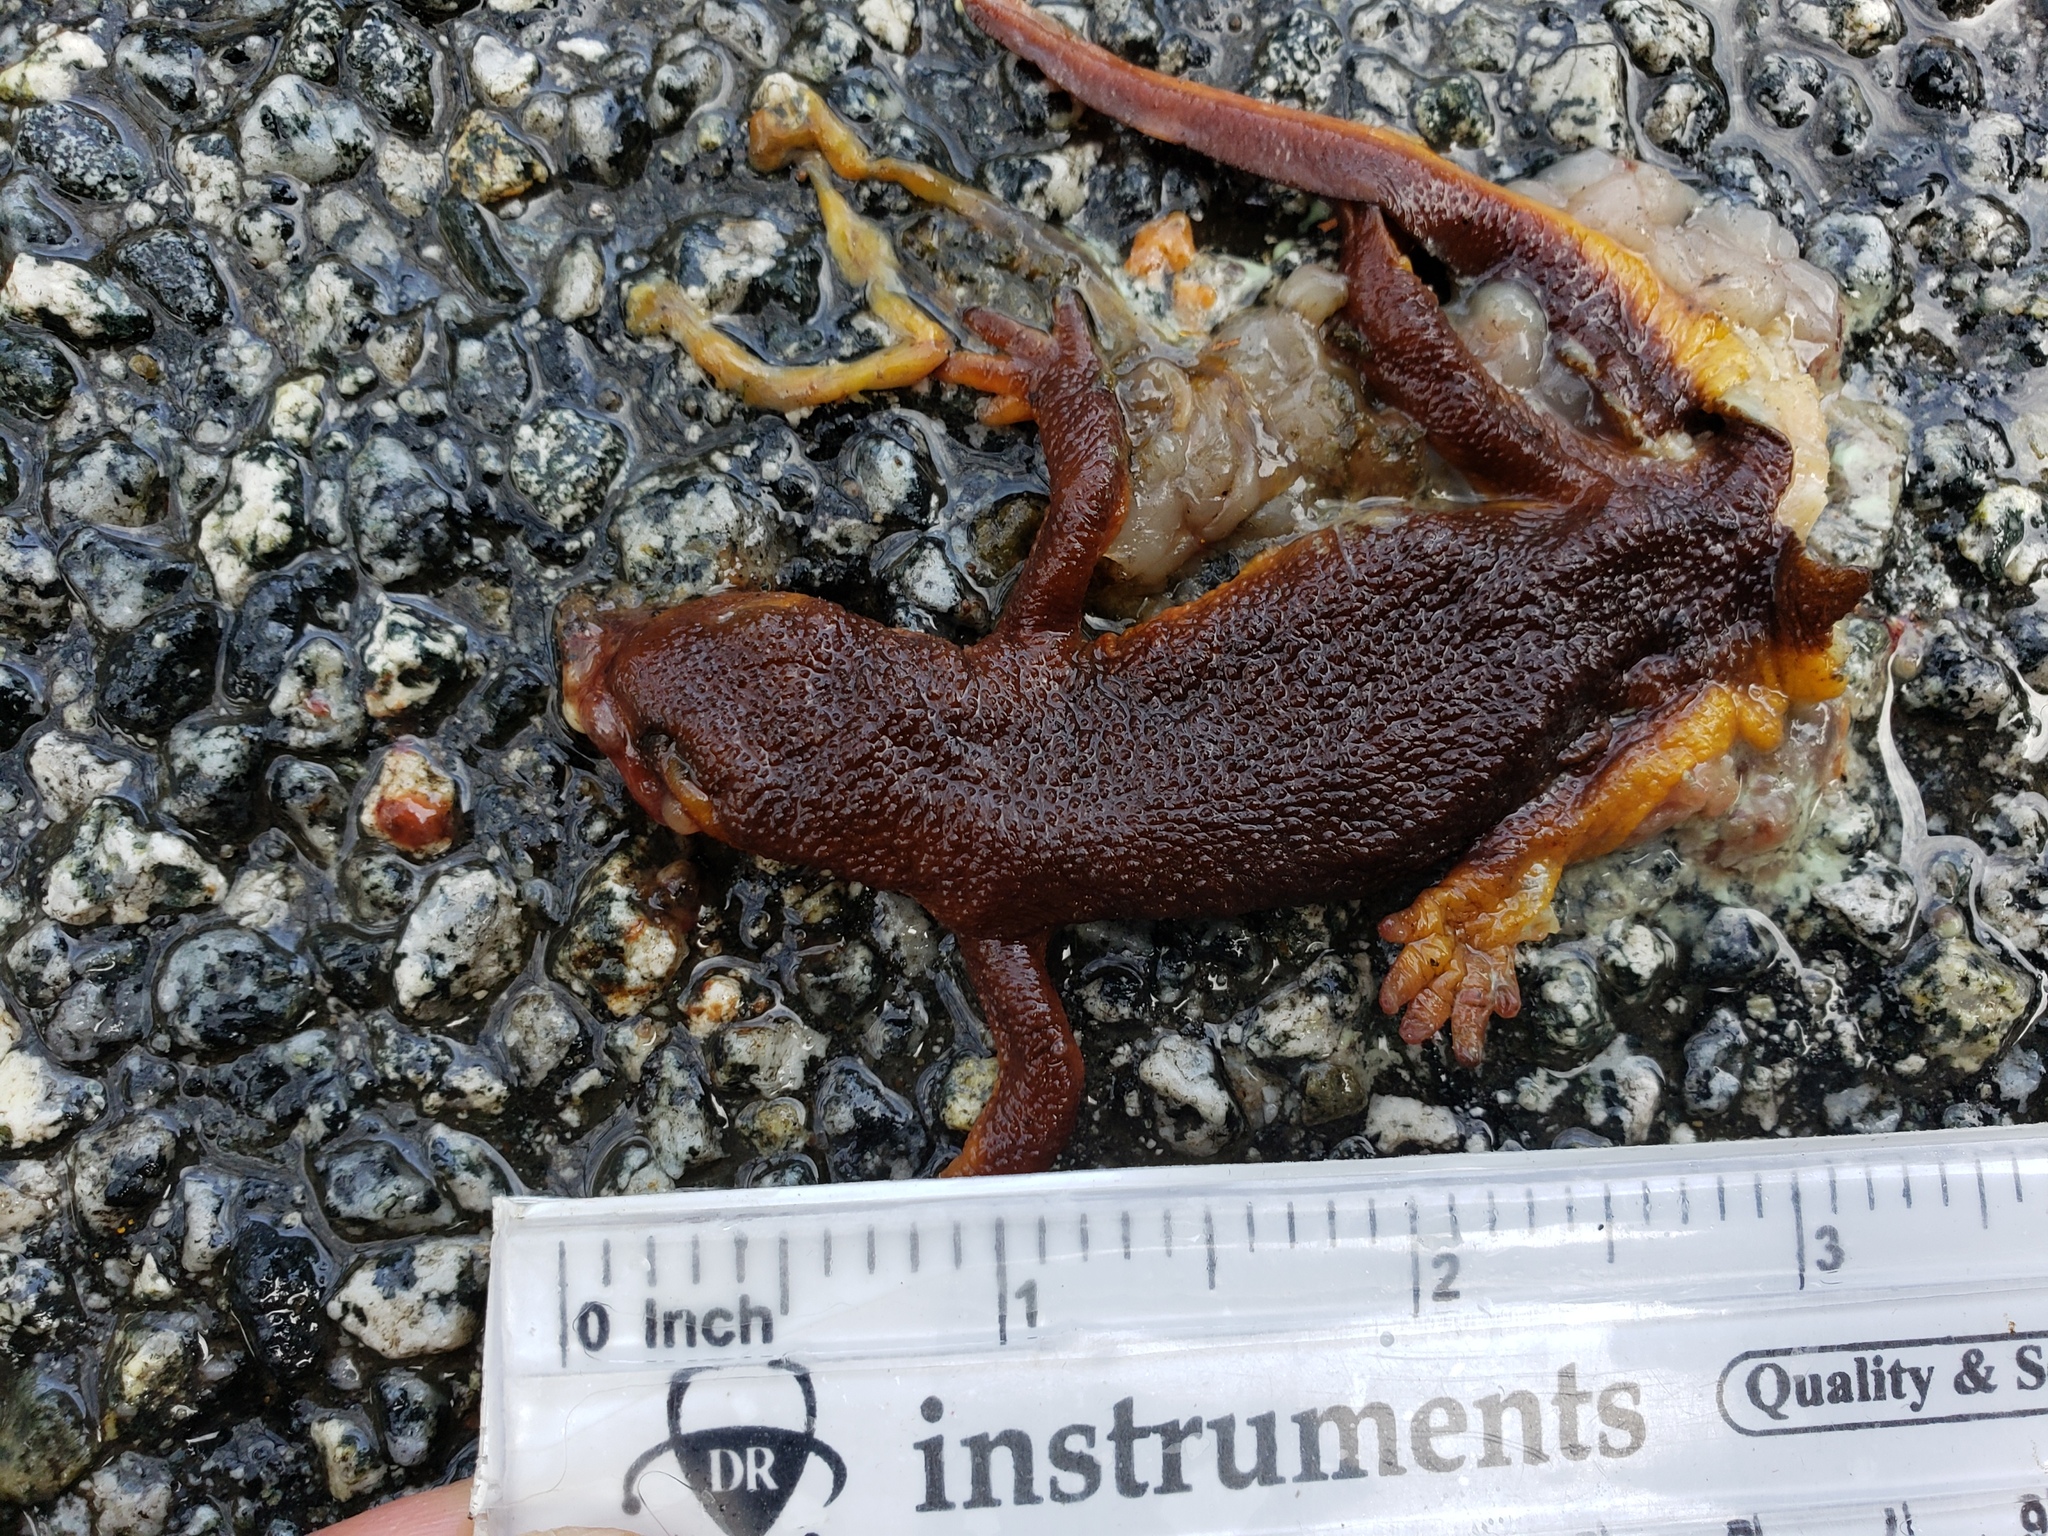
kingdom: Animalia
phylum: Chordata
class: Amphibia
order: Caudata
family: Salamandridae
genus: Taricha
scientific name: Taricha
